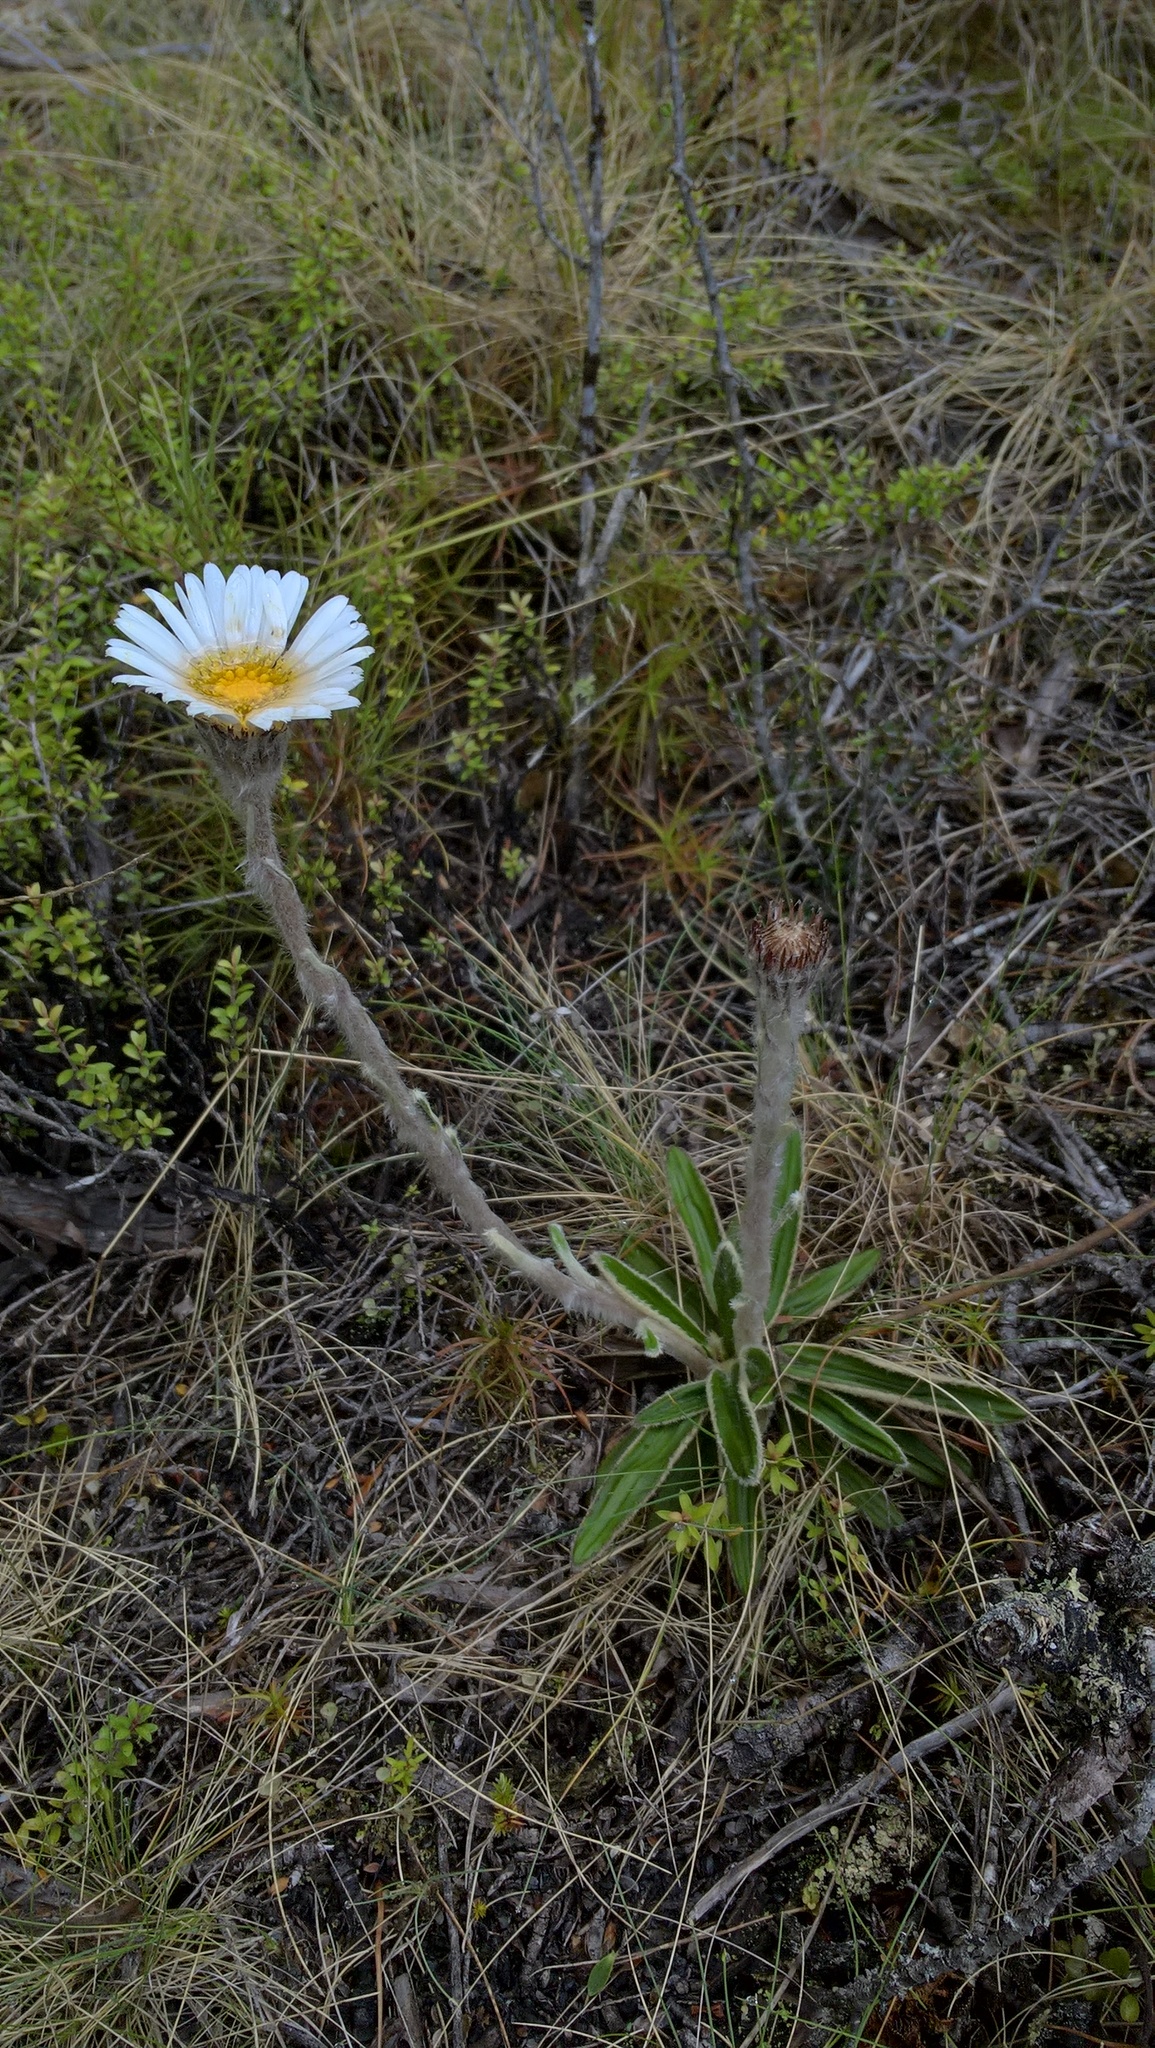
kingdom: Plantae
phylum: Tracheophyta
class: Magnoliopsida
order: Asterales
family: Asteraceae
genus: Celmisia
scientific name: Celmisia spectabilis
